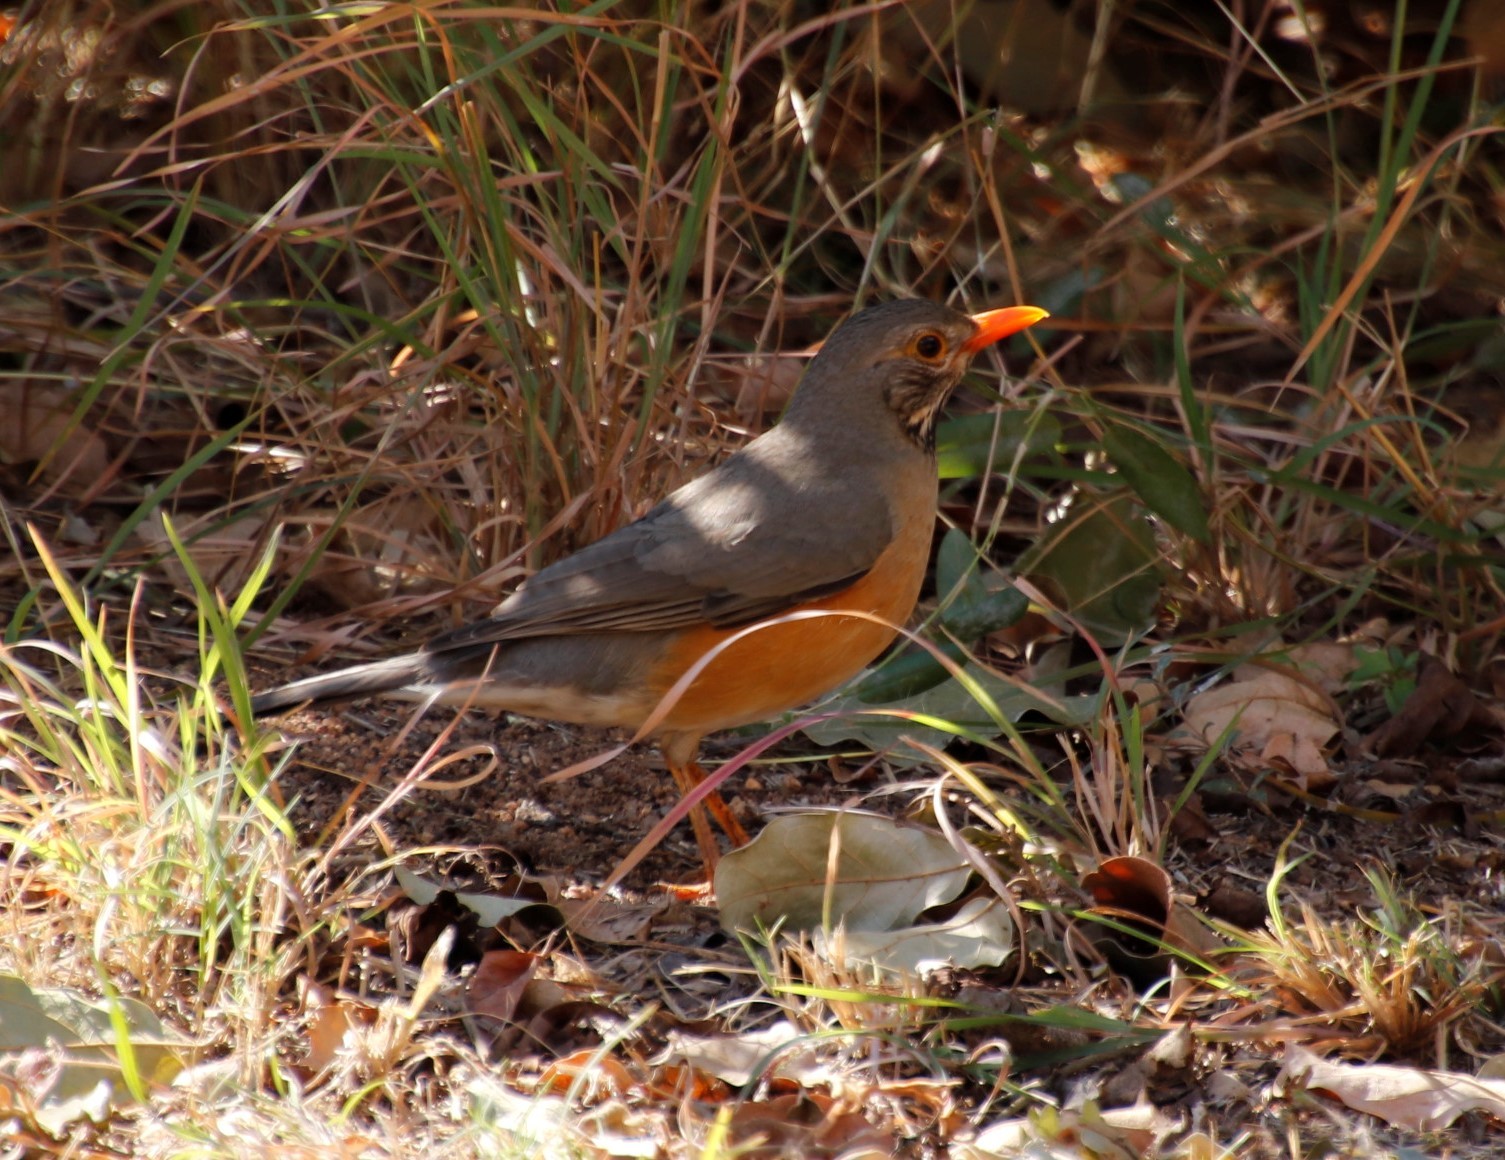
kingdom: Animalia
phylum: Chordata
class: Aves
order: Passeriformes
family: Turdidae
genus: Turdus
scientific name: Turdus libonyana
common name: Kurrichane thrush
